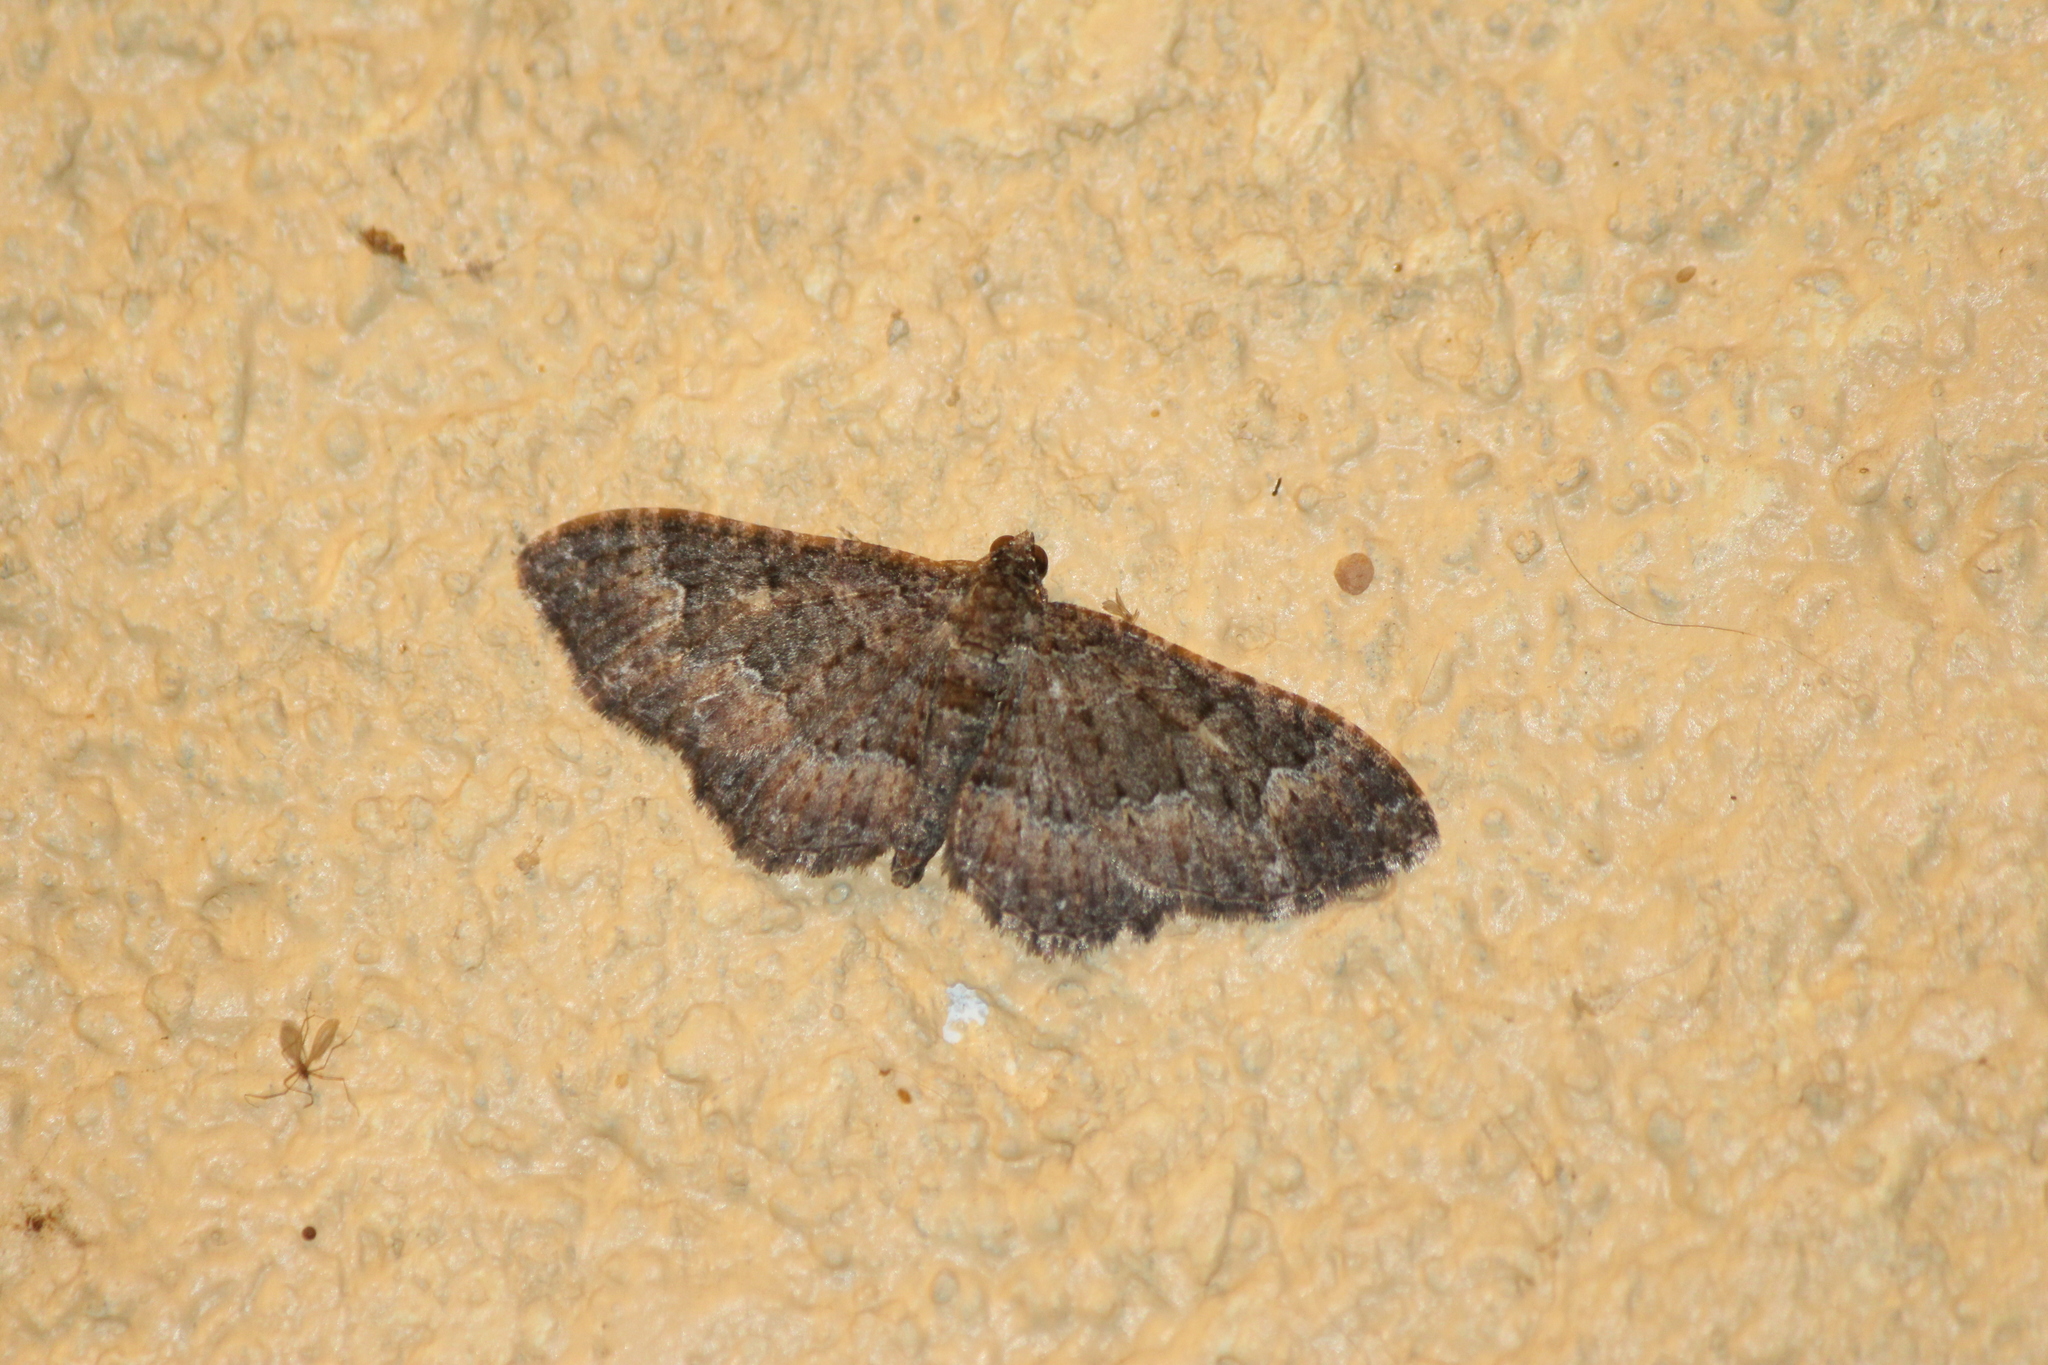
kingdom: Animalia
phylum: Arthropoda
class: Insecta
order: Lepidoptera
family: Geometridae
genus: Disclisioprocta
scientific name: Disclisioprocta stellata
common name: Somber carpet
